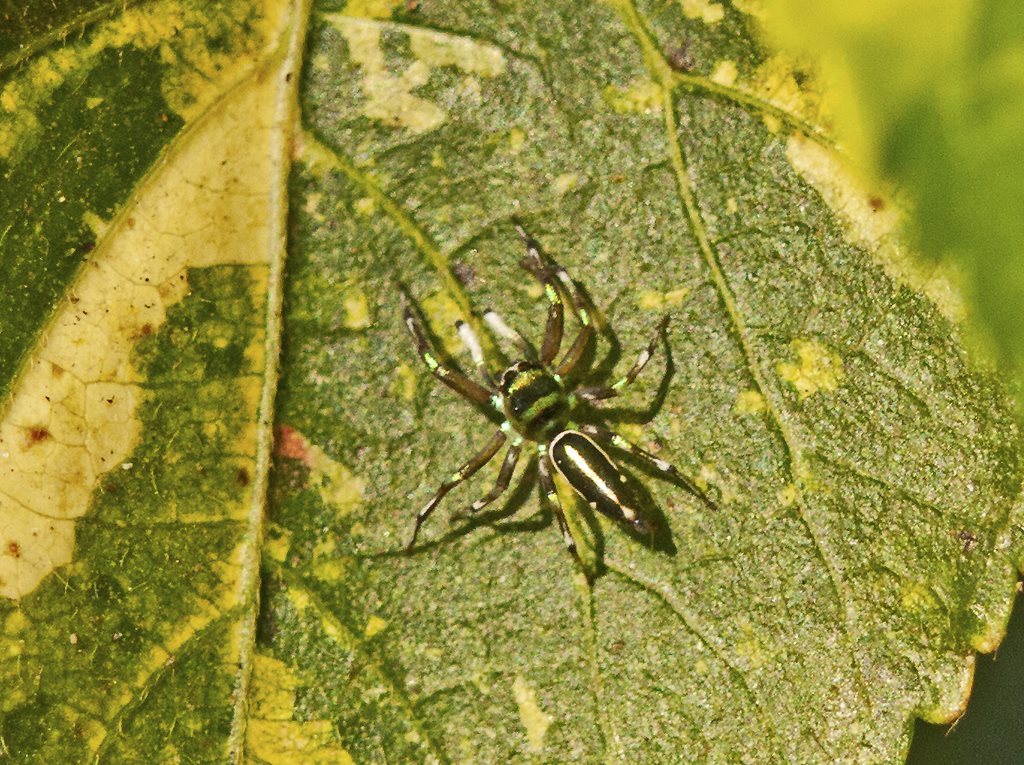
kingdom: Animalia
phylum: Arthropoda
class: Arachnida
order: Araneae
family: Salticidae
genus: Cosmophasis
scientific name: Cosmophasis thalassina
